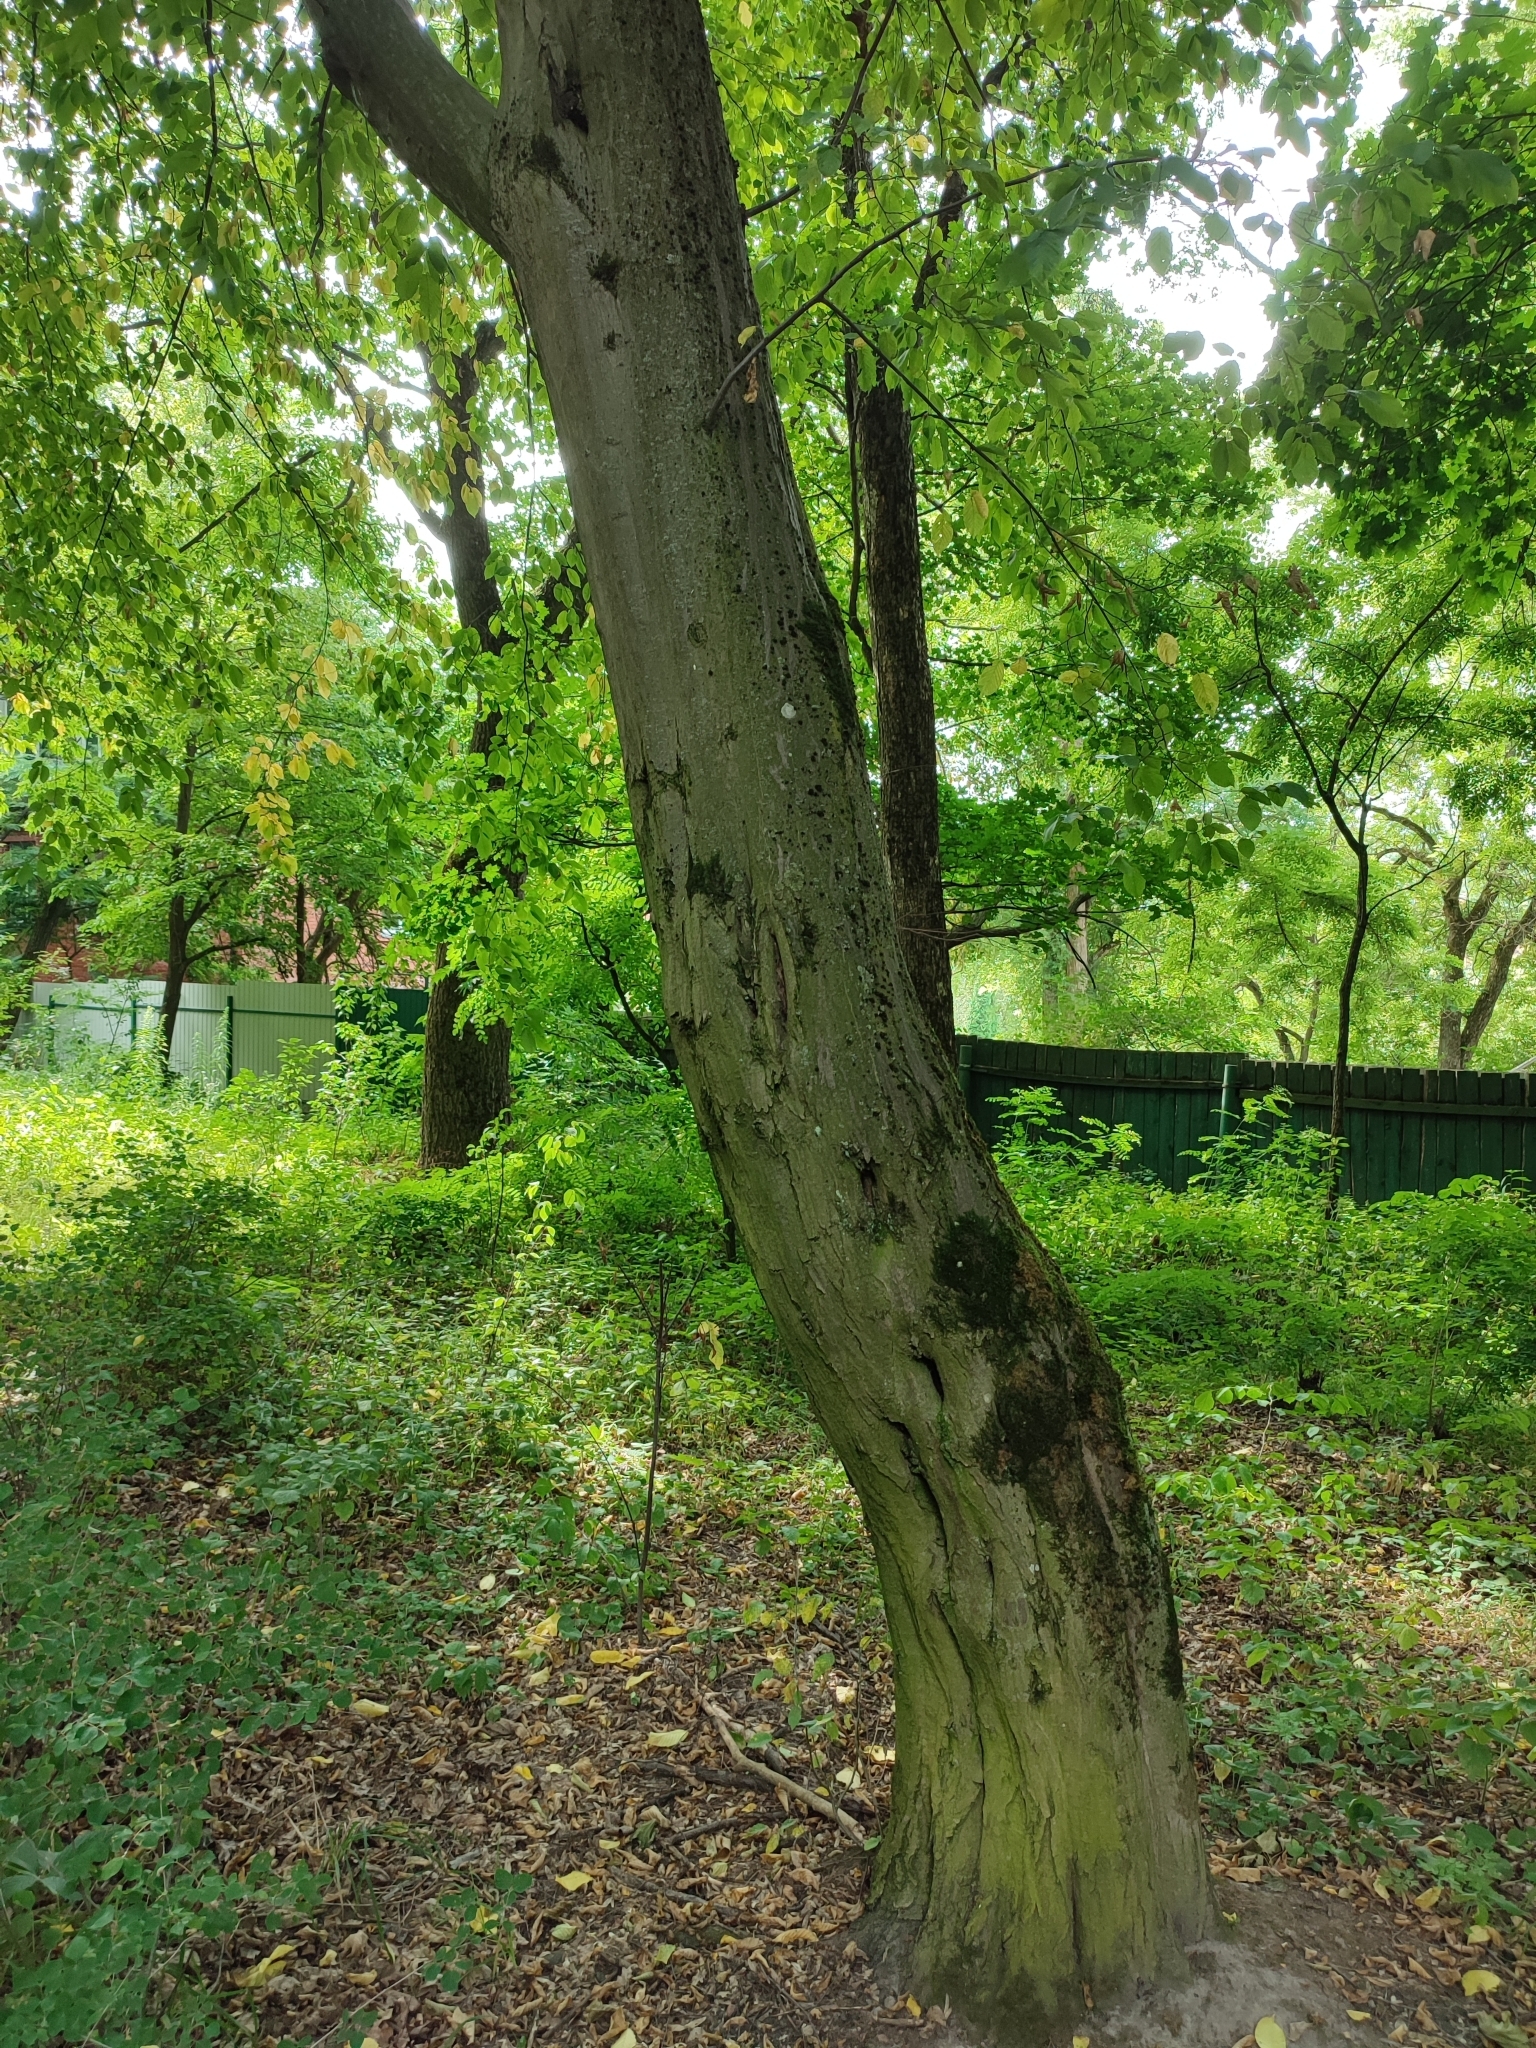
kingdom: Plantae
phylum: Tracheophyta
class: Magnoliopsida
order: Fagales
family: Betulaceae
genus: Carpinus
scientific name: Carpinus betulus
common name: Hornbeam
